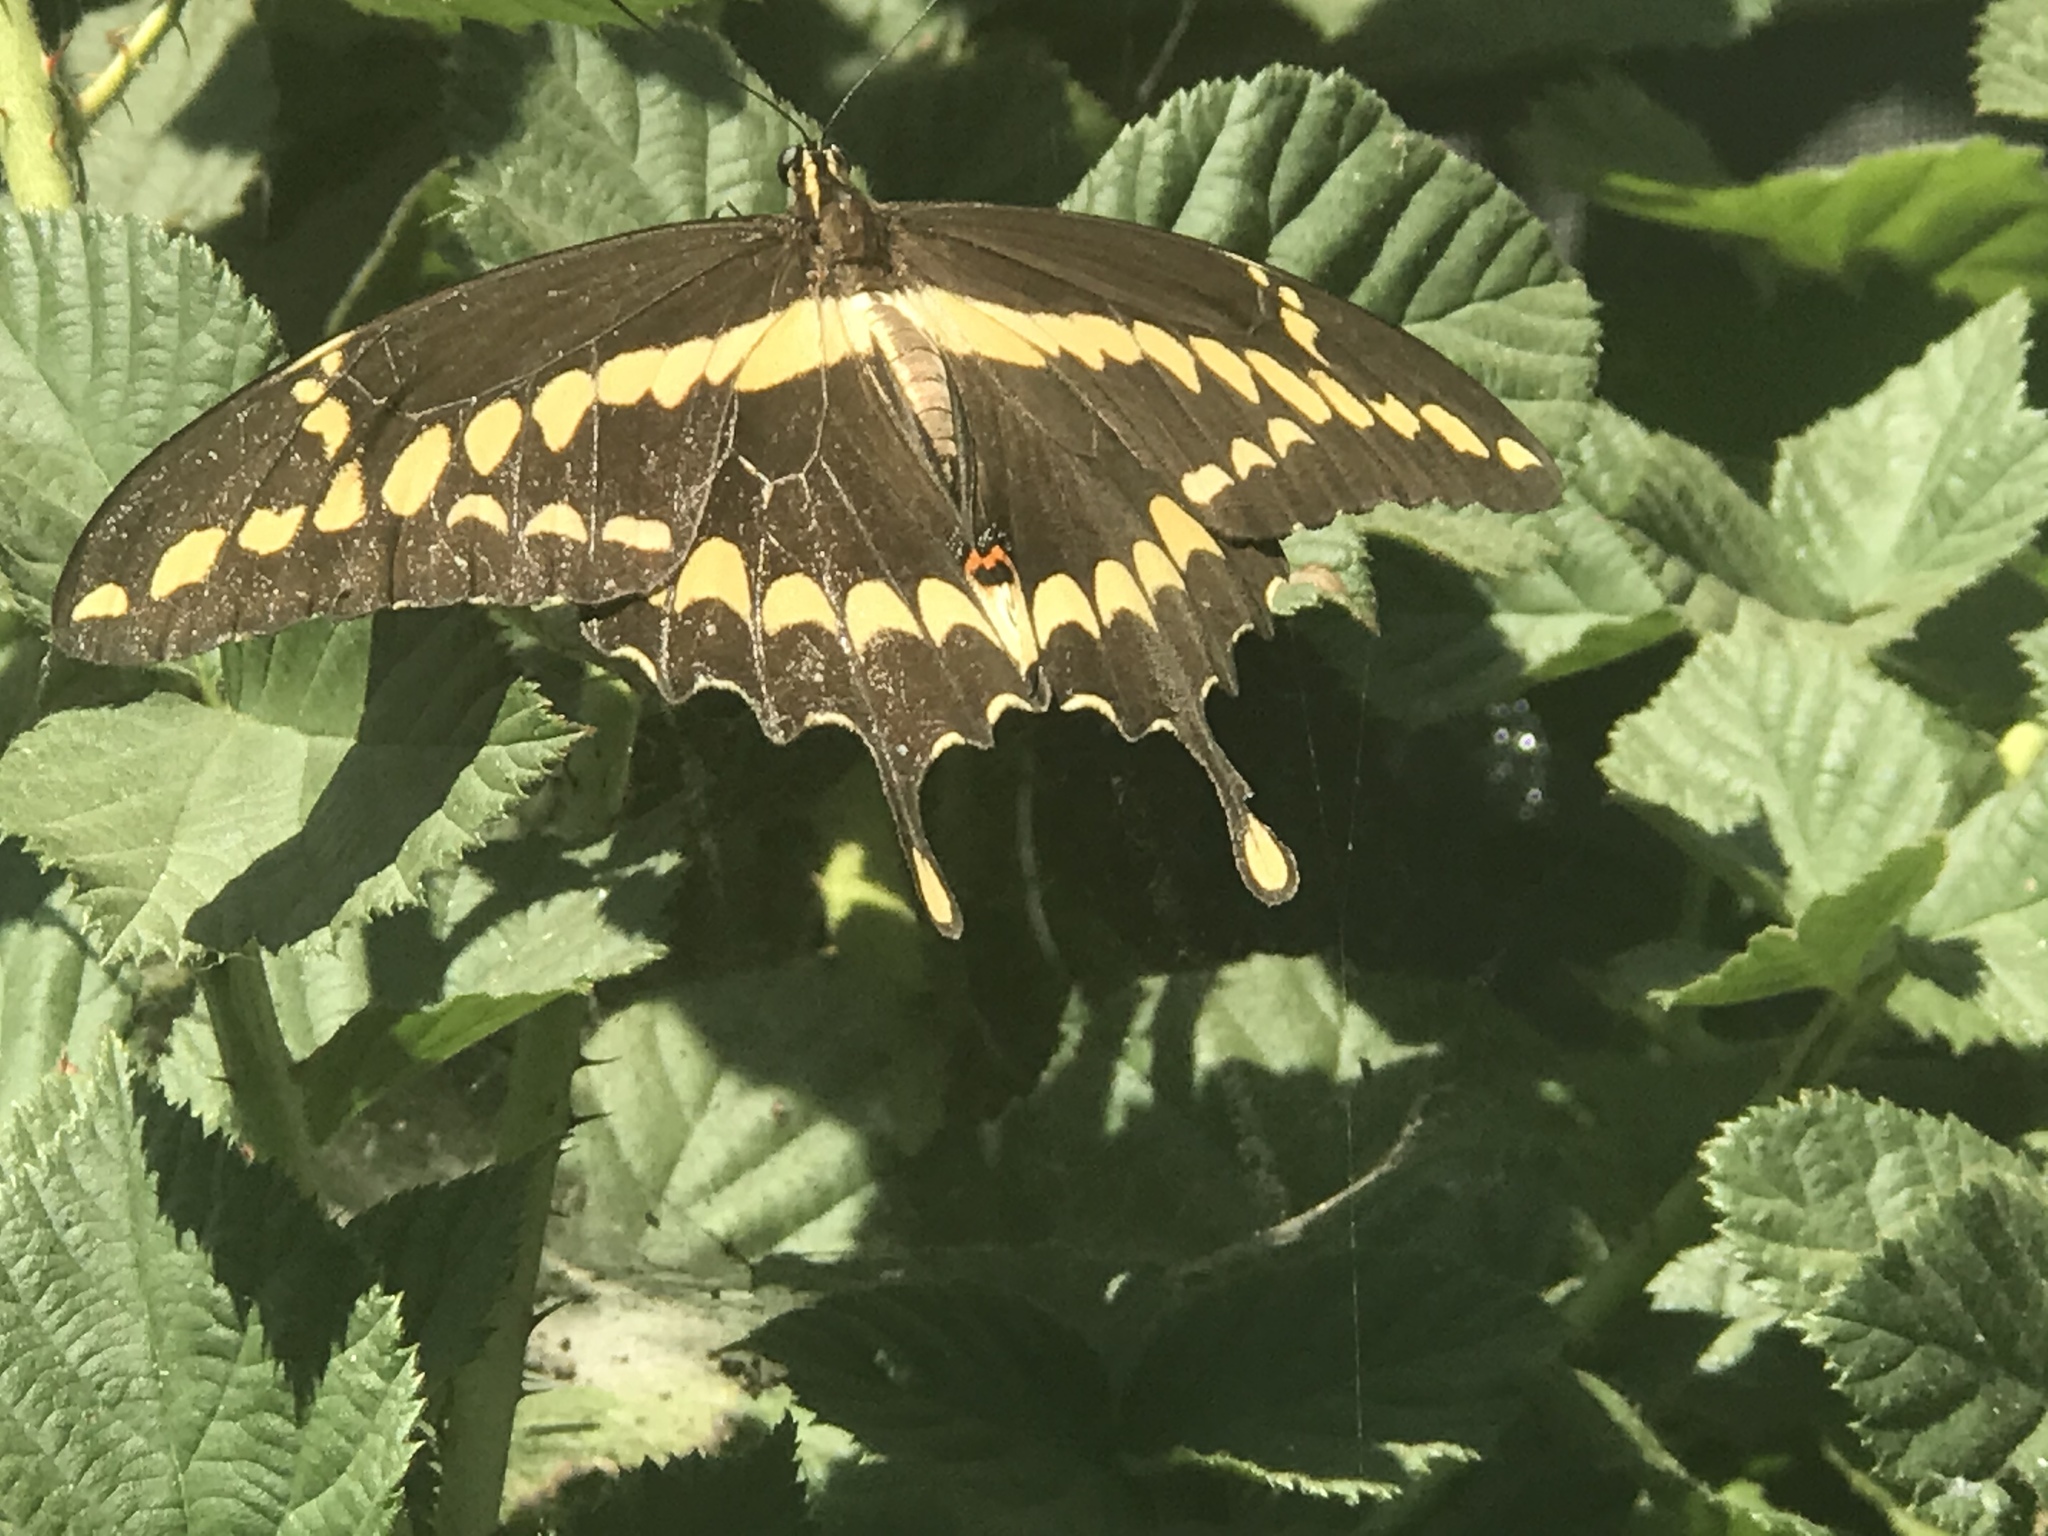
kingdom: Animalia
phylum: Arthropoda
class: Insecta
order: Lepidoptera
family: Papilionidae
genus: Papilio
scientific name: Papilio rumiko
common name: Western giant swallowtail
